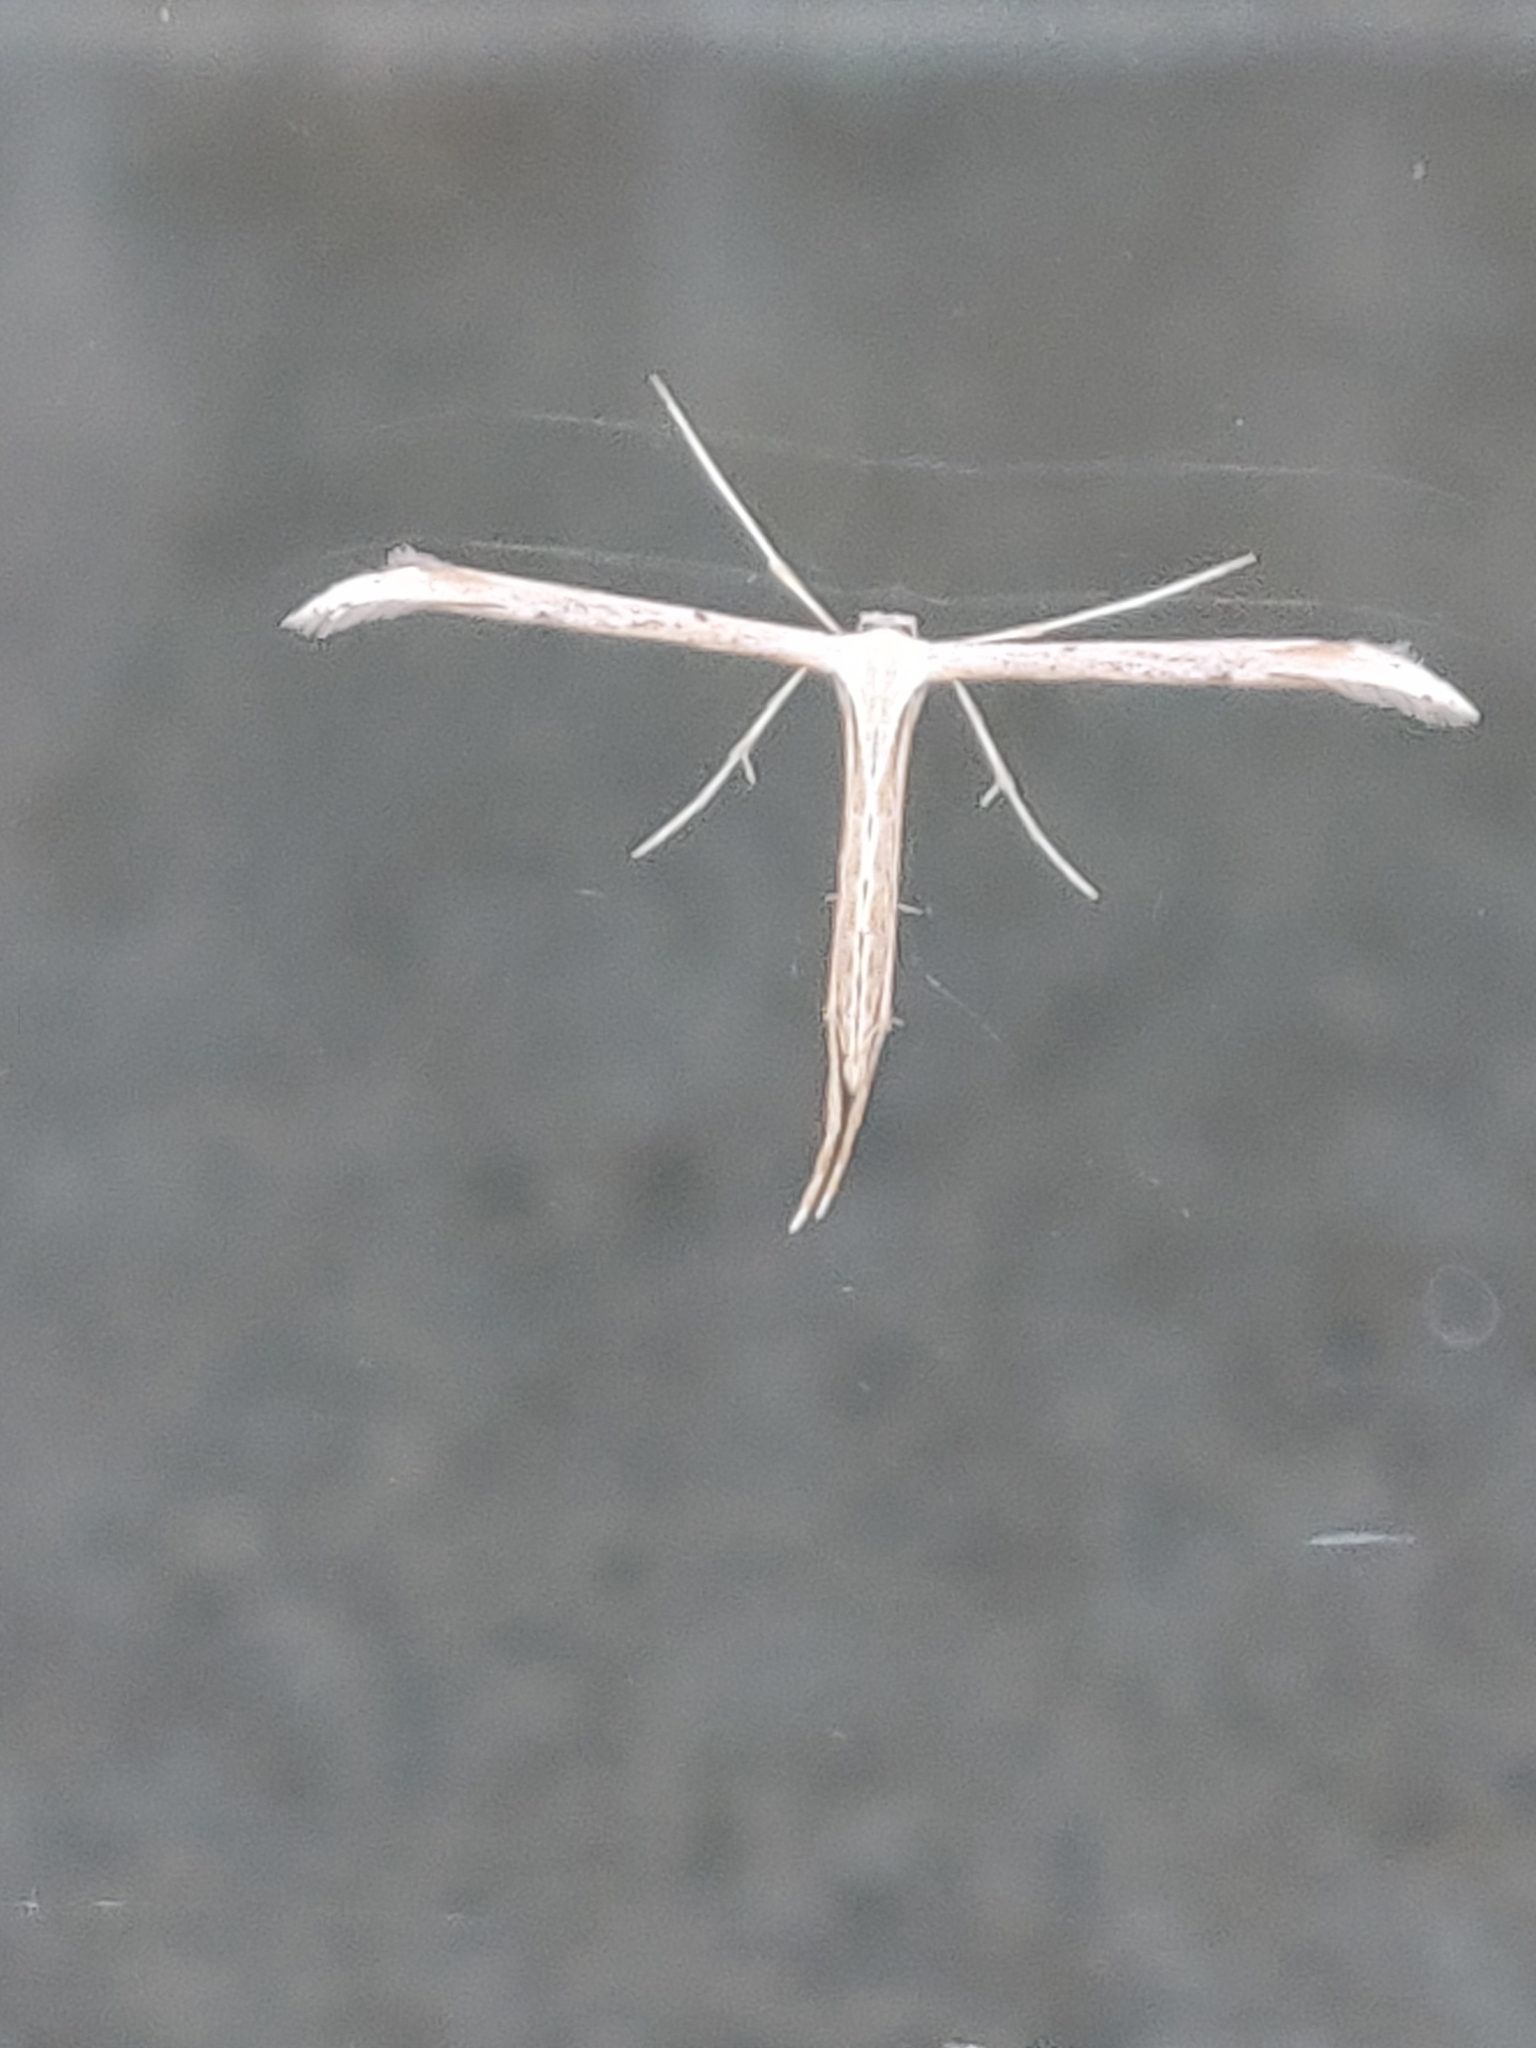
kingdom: Animalia
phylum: Arthropoda
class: Insecta
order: Lepidoptera
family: Pterophoridae
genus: Emmelina
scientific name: Emmelina monodactyla
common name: Common plume
